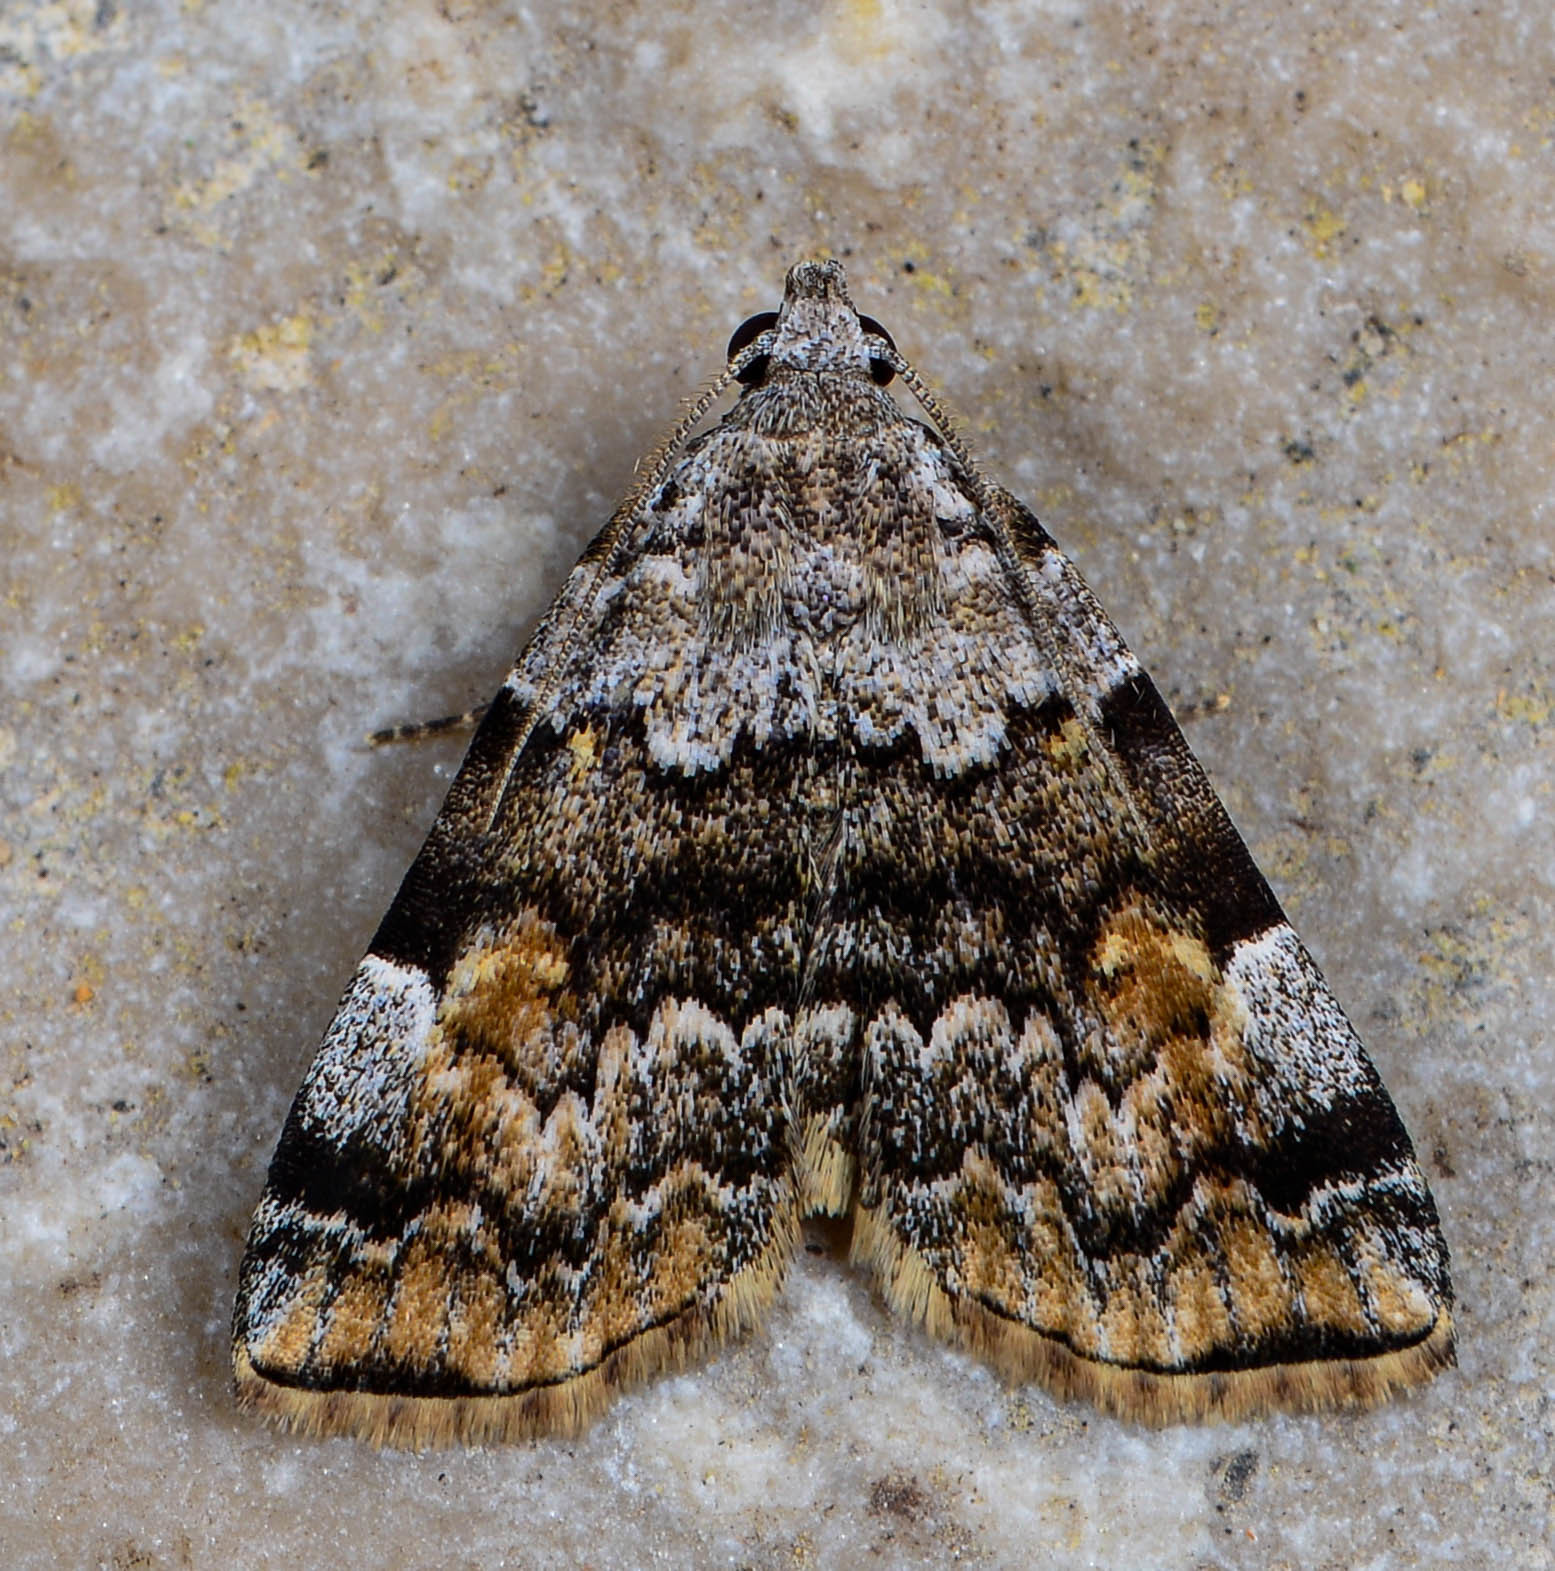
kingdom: Animalia
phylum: Arthropoda
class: Insecta
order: Lepidoptera
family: Erebidae
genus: Idia
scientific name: Idia americalis
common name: American idia moth
